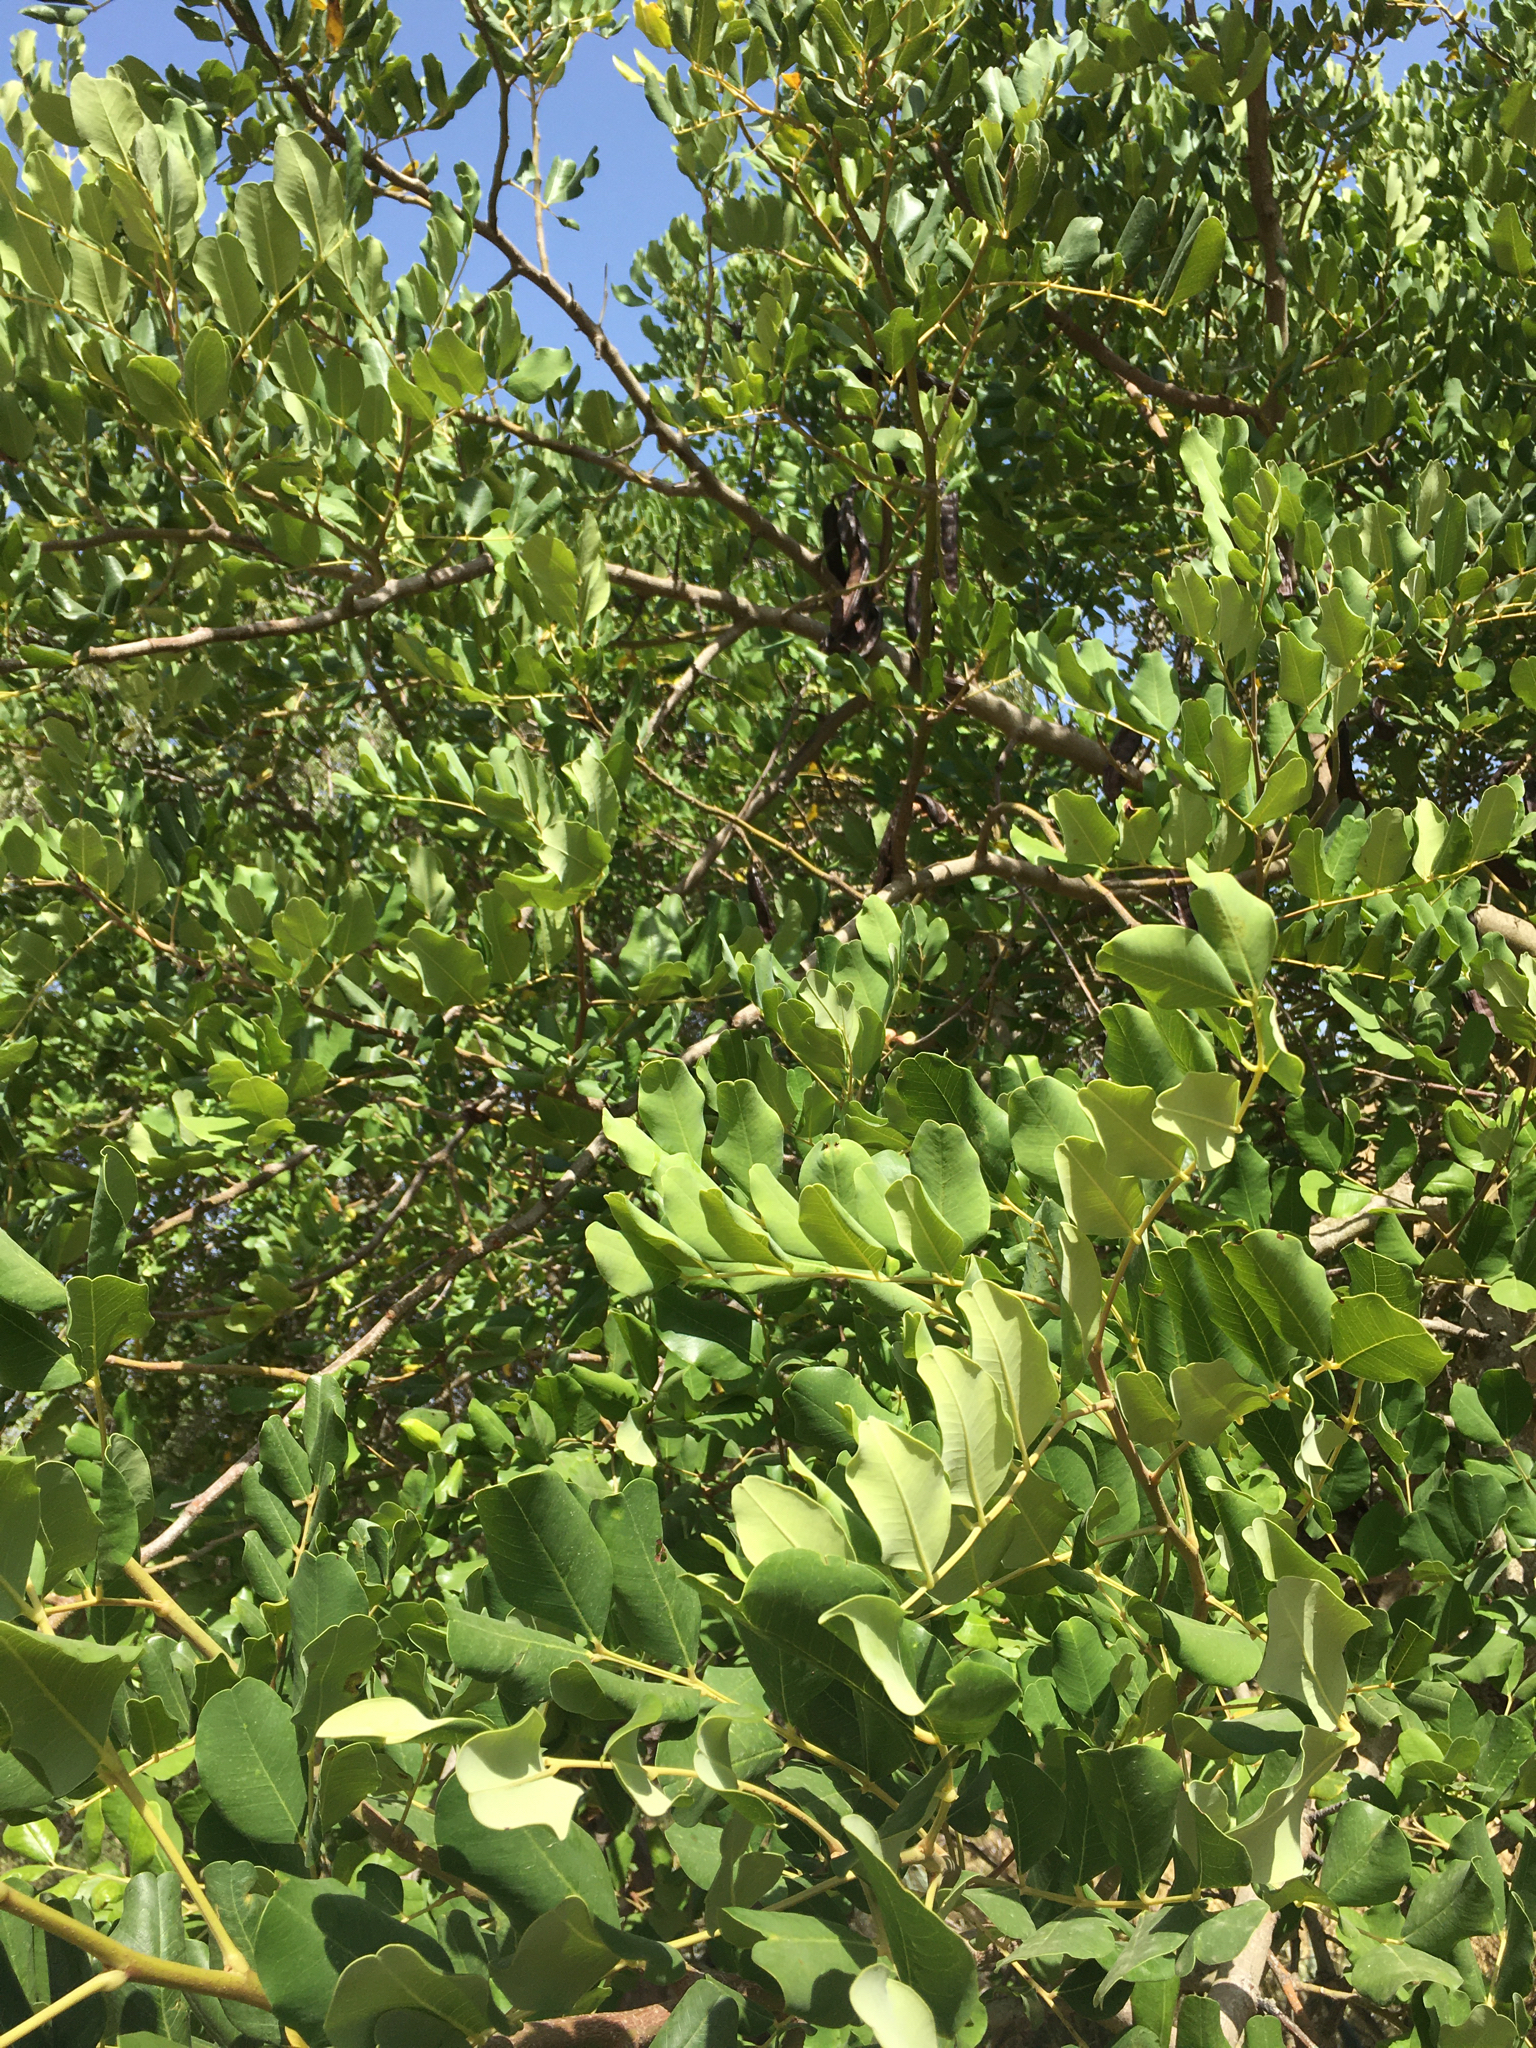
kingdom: Plantae
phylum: Tracheophyta
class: Magnoliopsida
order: Fabales
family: Fabaceae
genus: Ceratonia
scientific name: Ceratonia siliqua
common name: Carob
